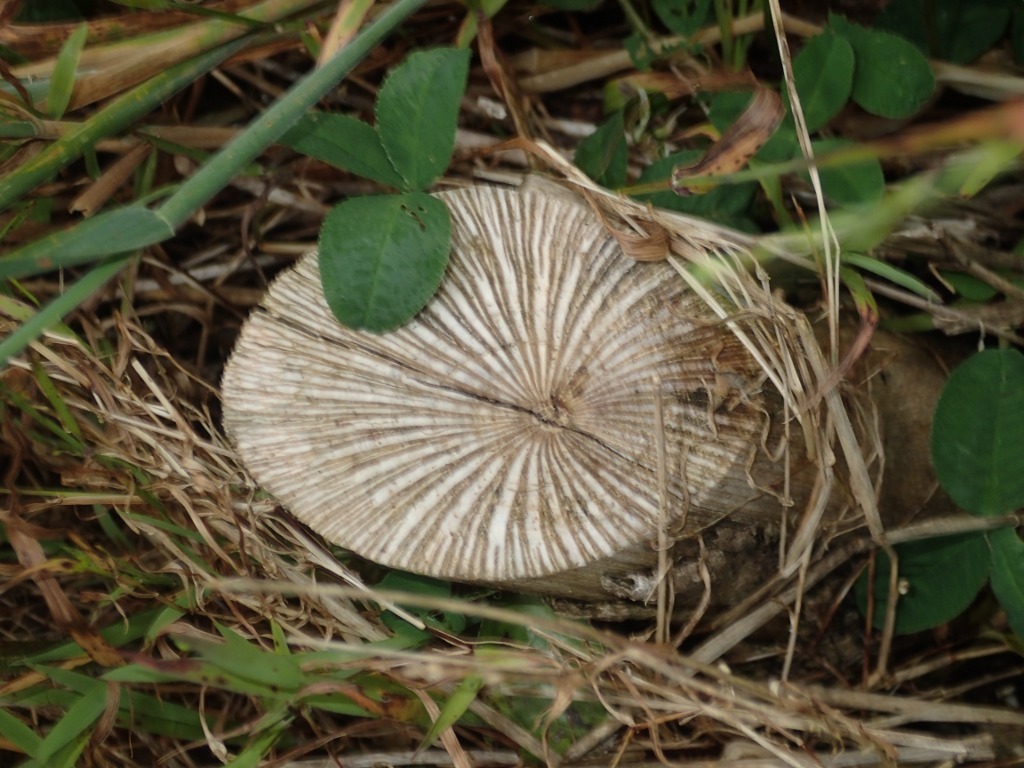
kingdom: Plantae
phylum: Tracheophyta
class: Magnoliopsida
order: Piperales
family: Piperaceae
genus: Macropiper
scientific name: Macropiper excelsum
